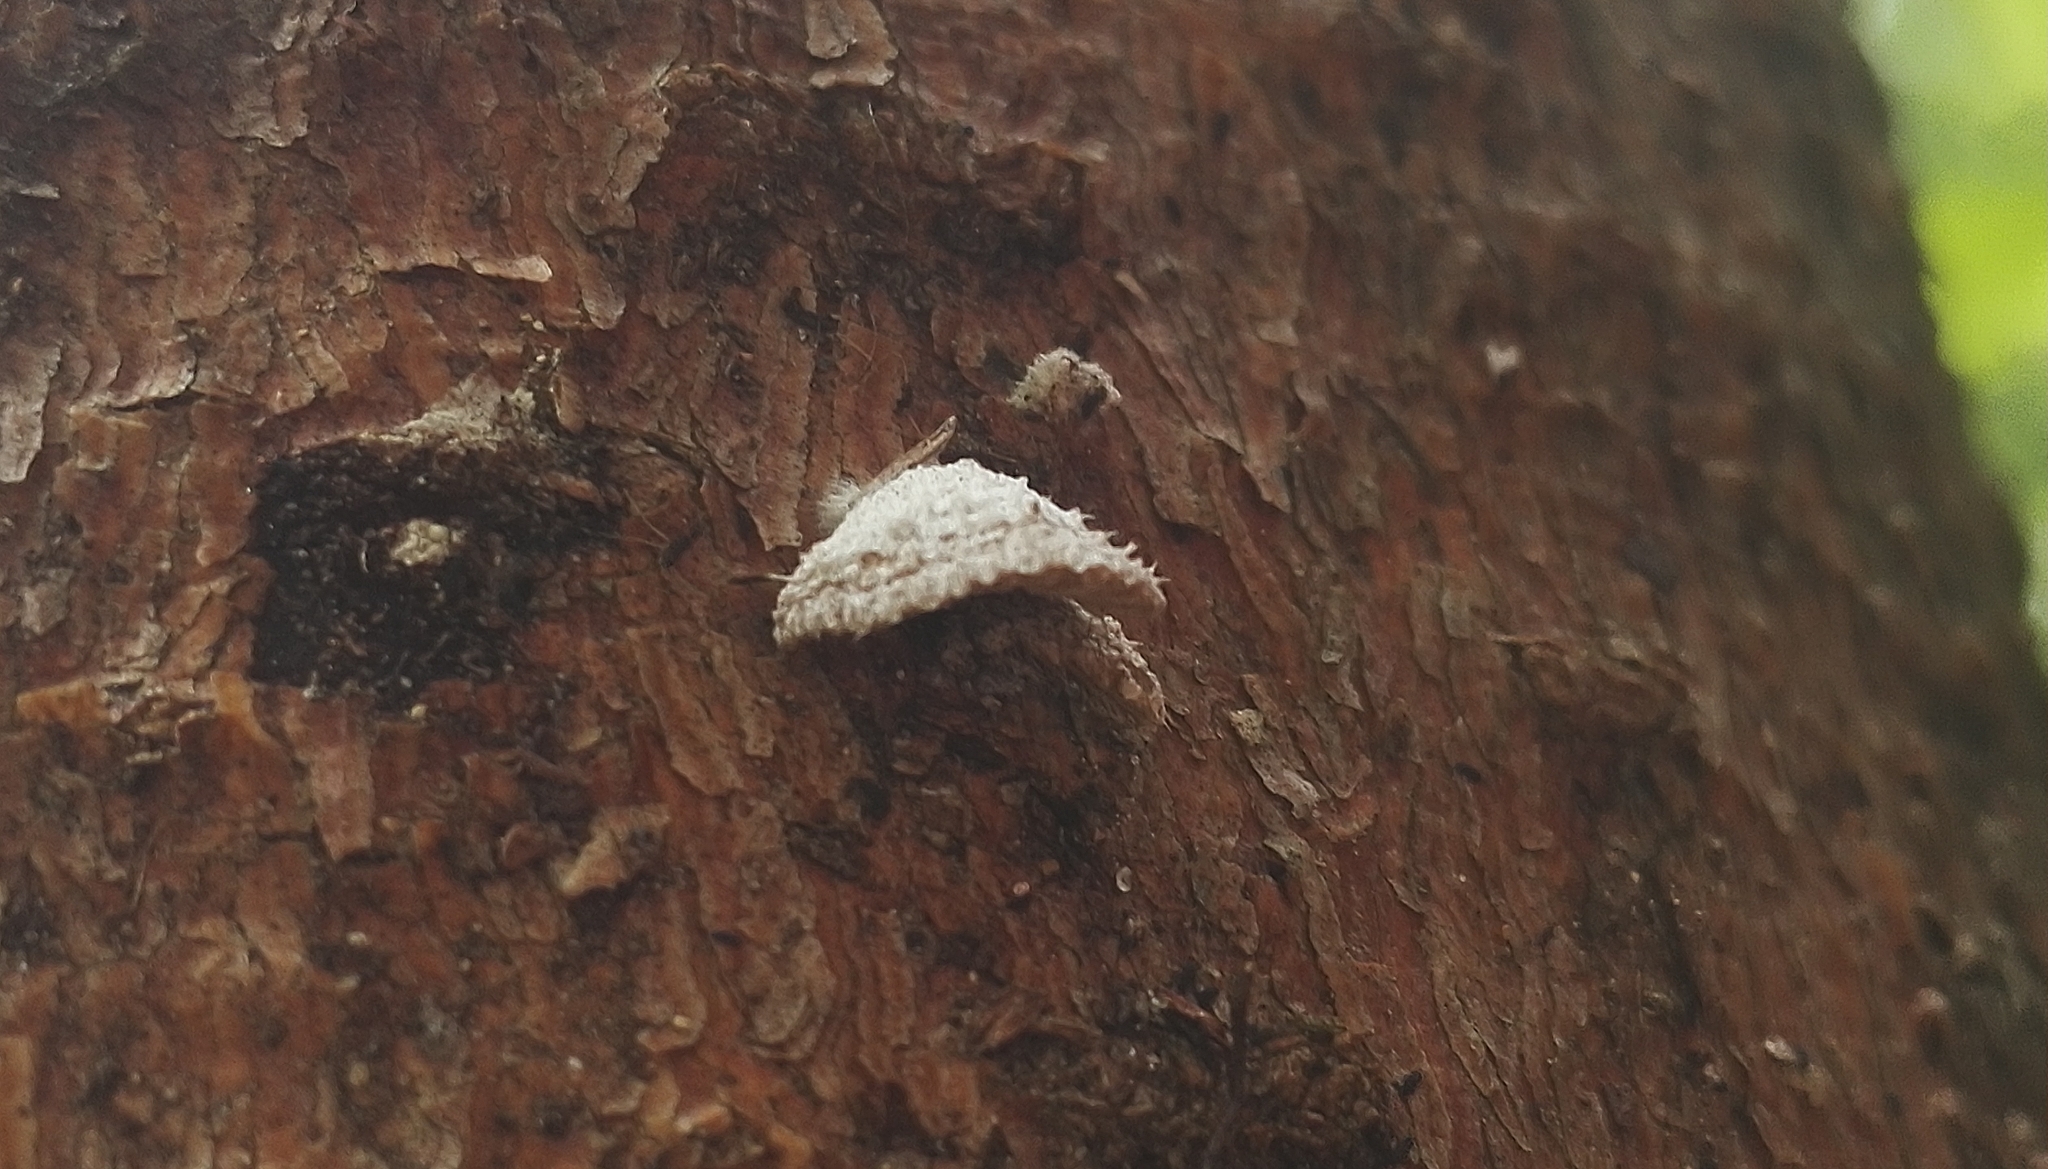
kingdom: Fungi
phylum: Basidiomycota
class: Agaricomycetes
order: Agaricales
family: Schizophyllaceae
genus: Schizophyllum
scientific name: Schizophyllum commune
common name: Common porecrust
